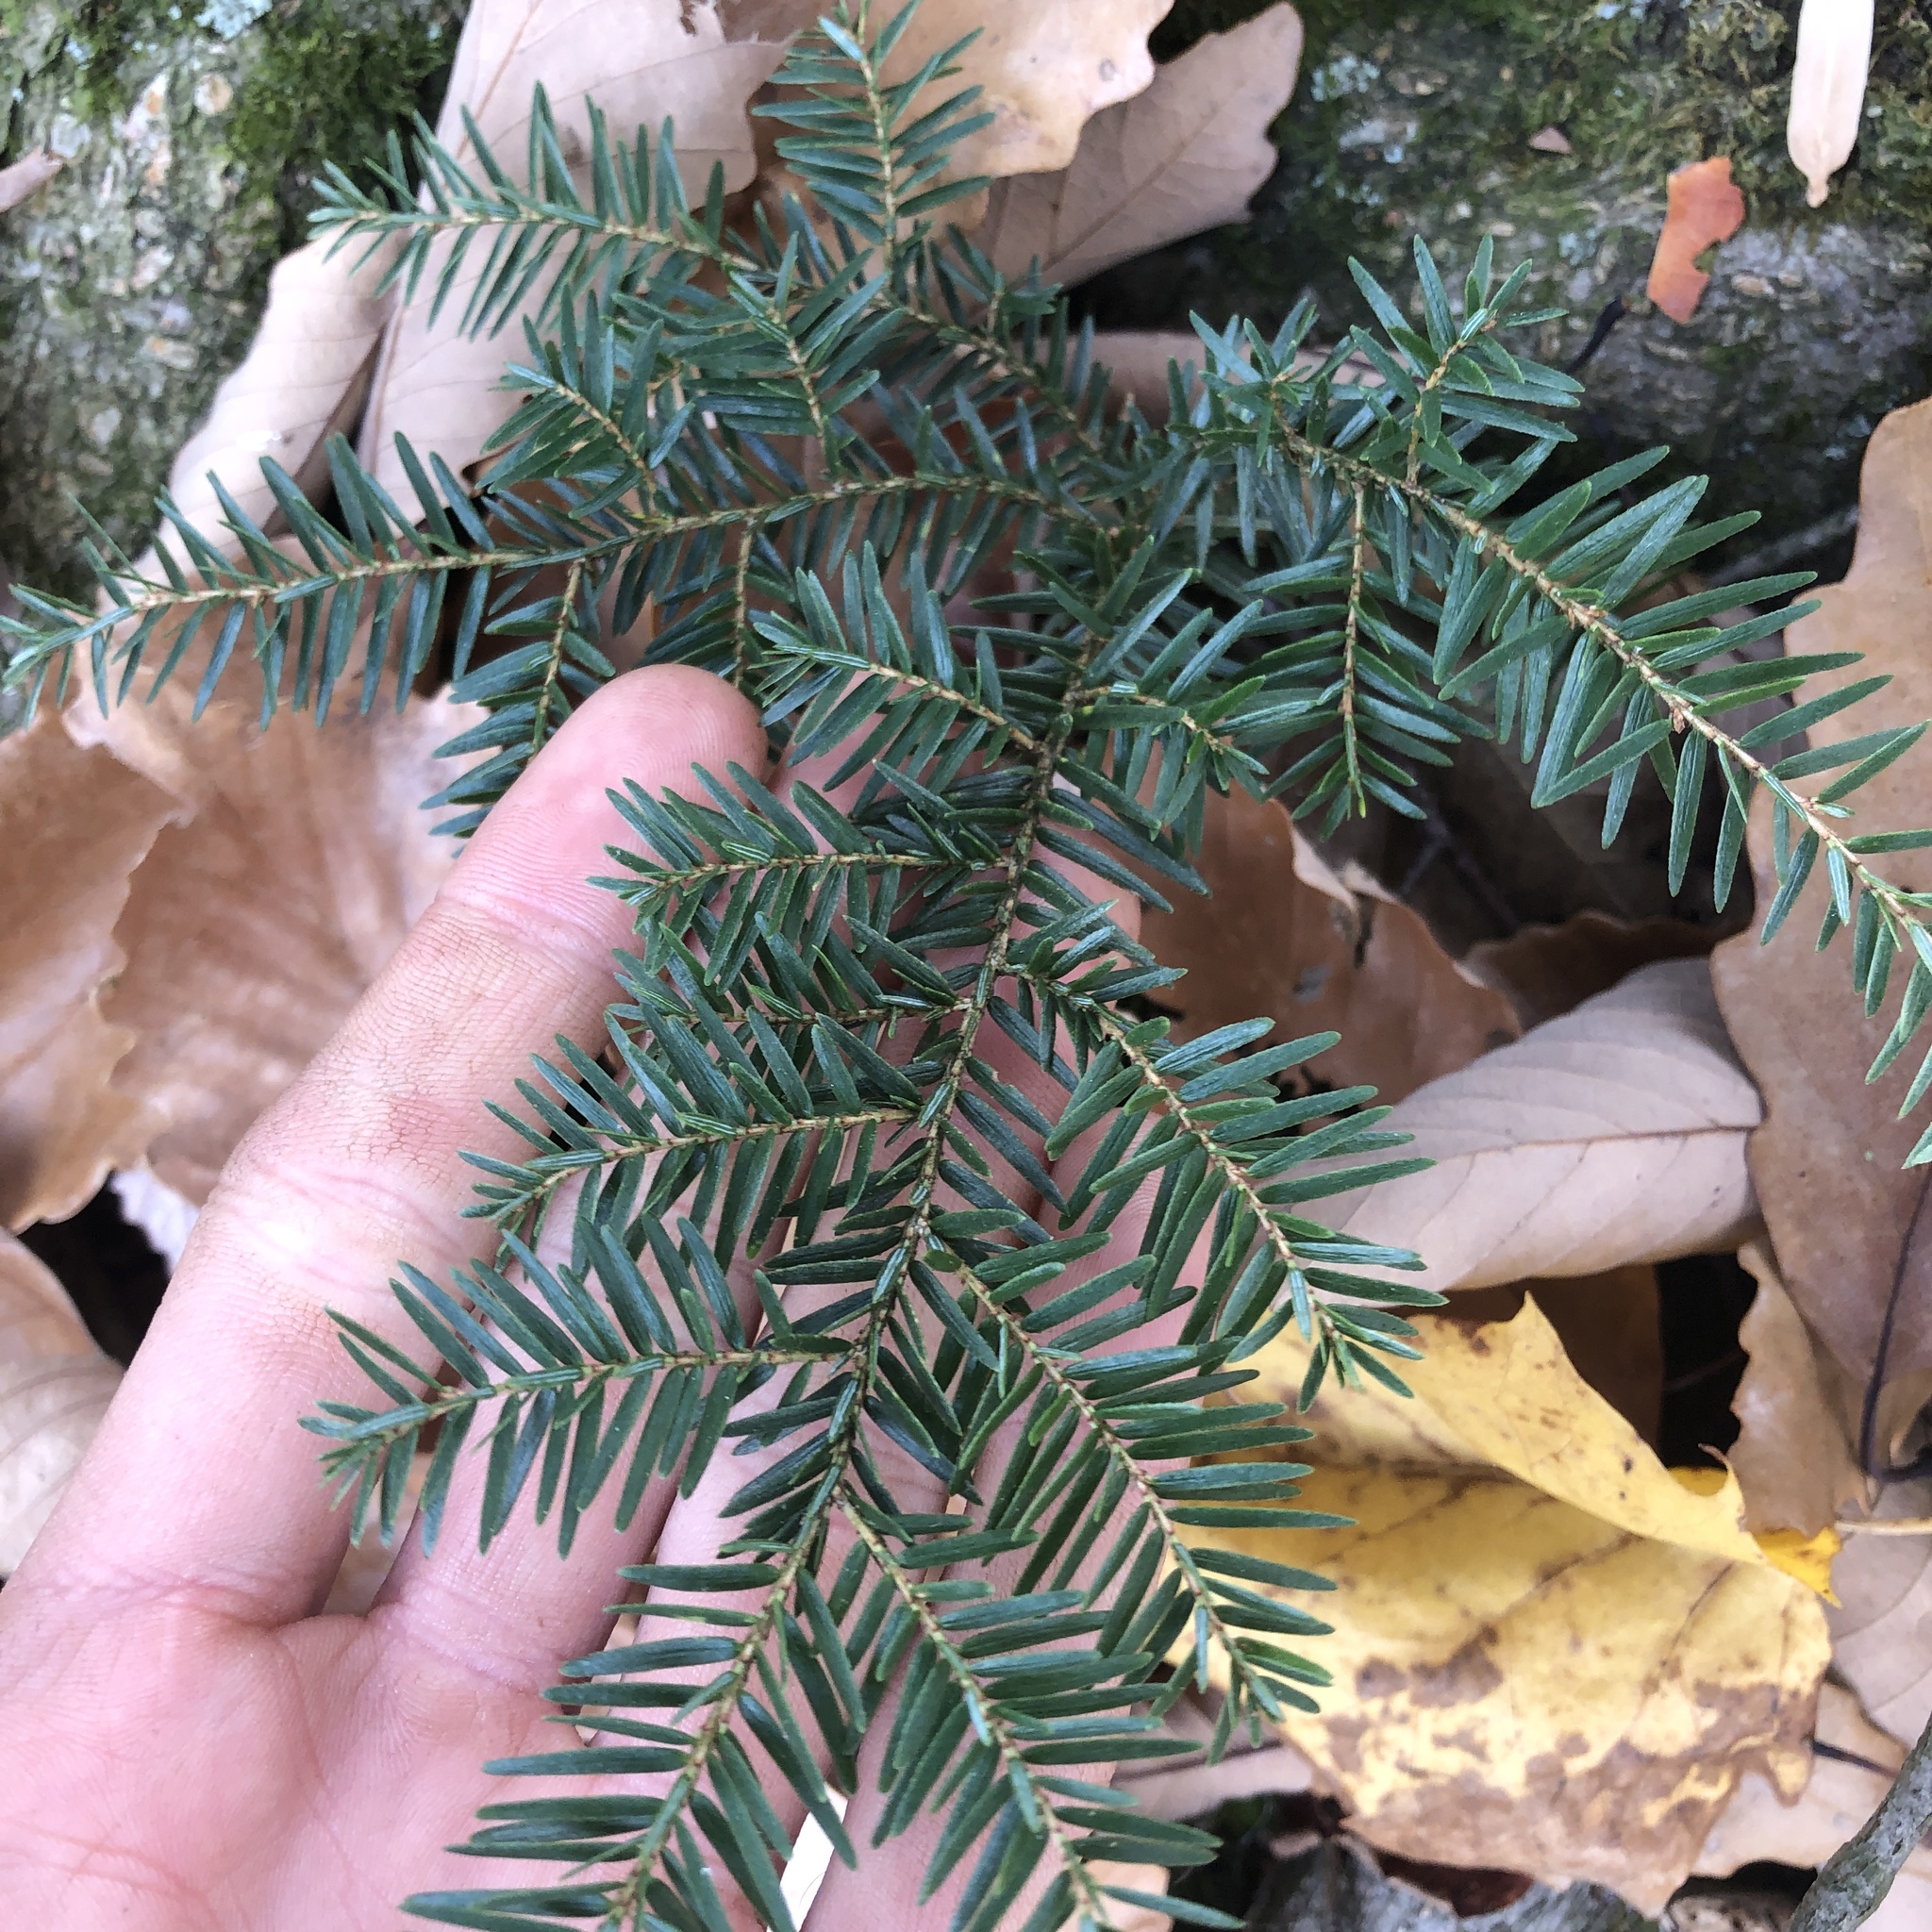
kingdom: Plantae
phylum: Tracheophyta
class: Pinopsida
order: Pinales
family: Pinaceae
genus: Tsuga
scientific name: Tsuga canadensis
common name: Eastern hemlock
